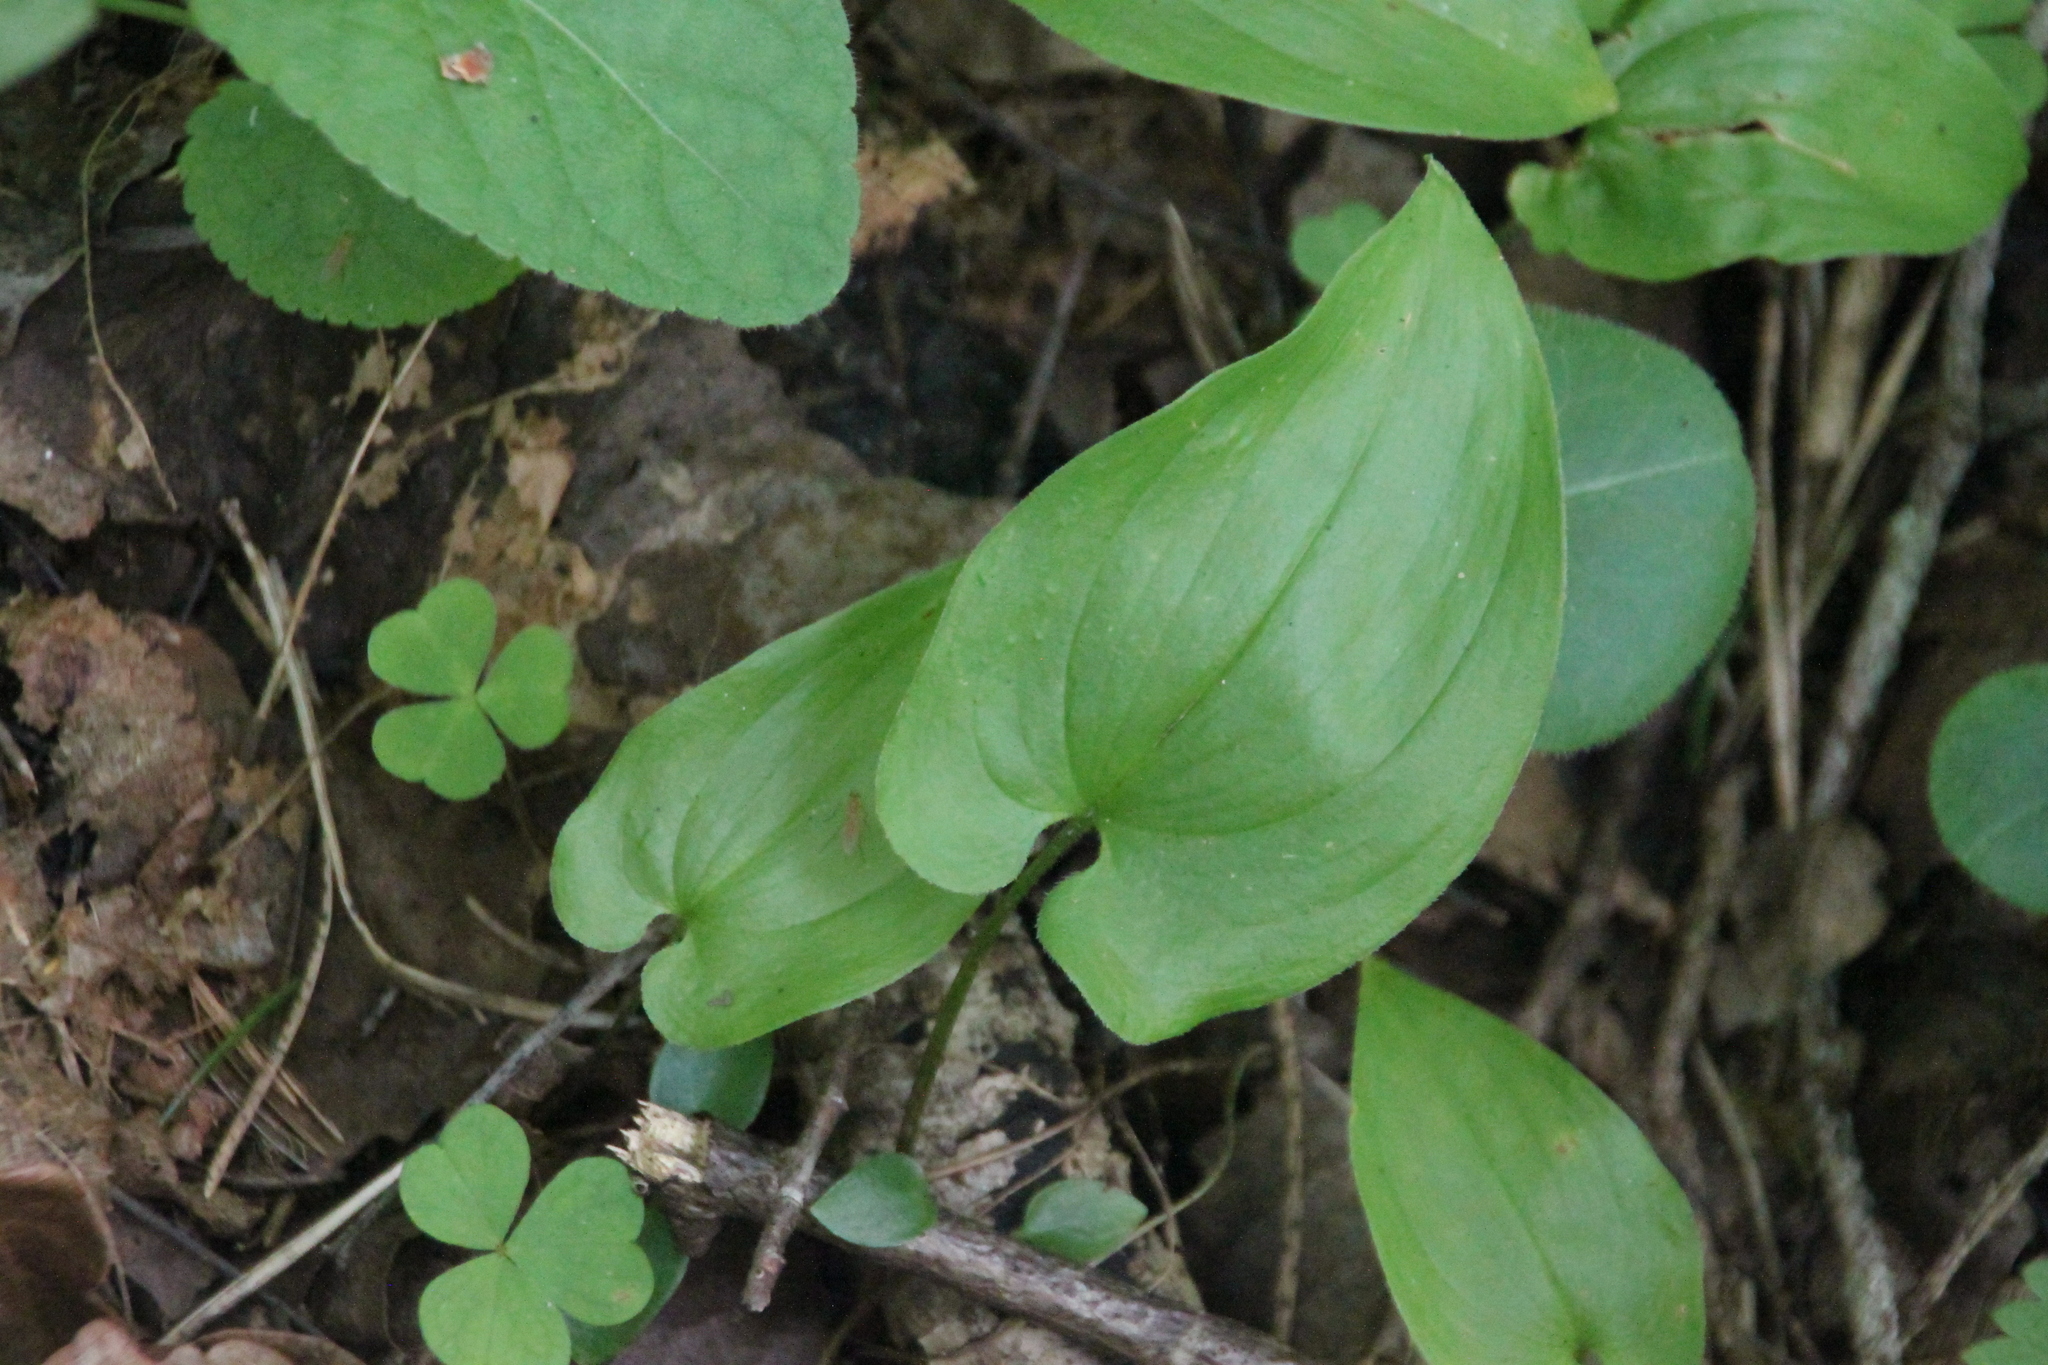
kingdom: Plantae
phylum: Tracheophyta
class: Liliopsida
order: Asparagales
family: Asparagaceae
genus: Maianthemum
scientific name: Maianthemum bifolium
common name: May lily
